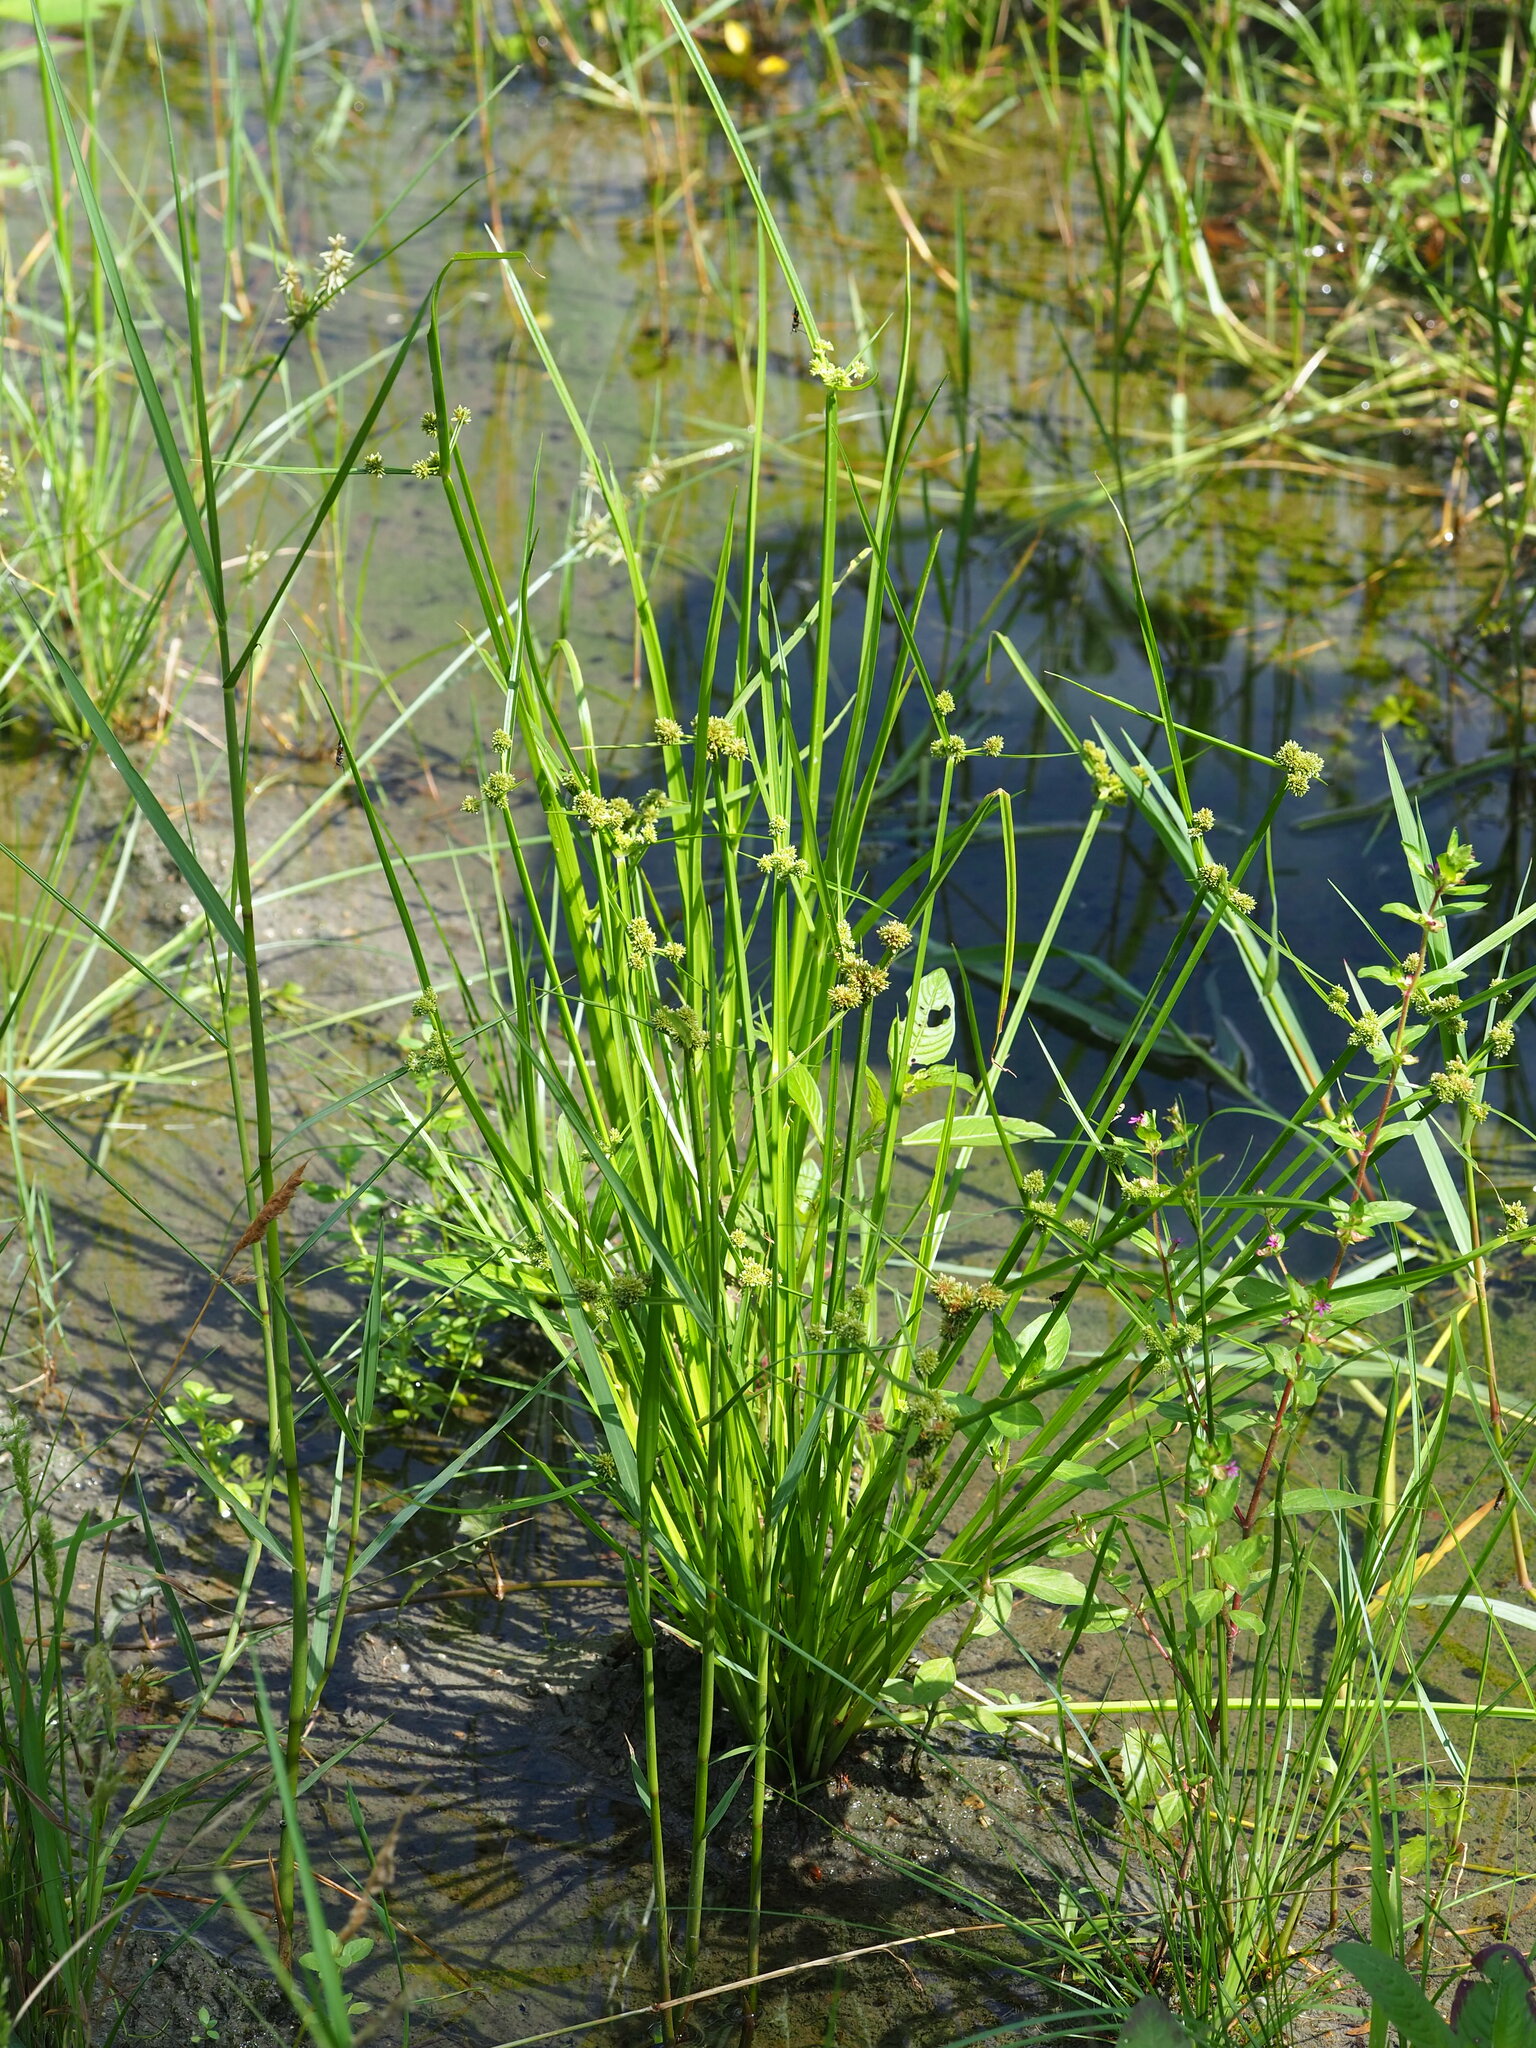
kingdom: Plantae
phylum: Tracheophyta
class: Liliopsida
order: Poales
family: Cyperaceae
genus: Cyperus
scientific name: Cyperus difformis
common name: Variable flatsedge
